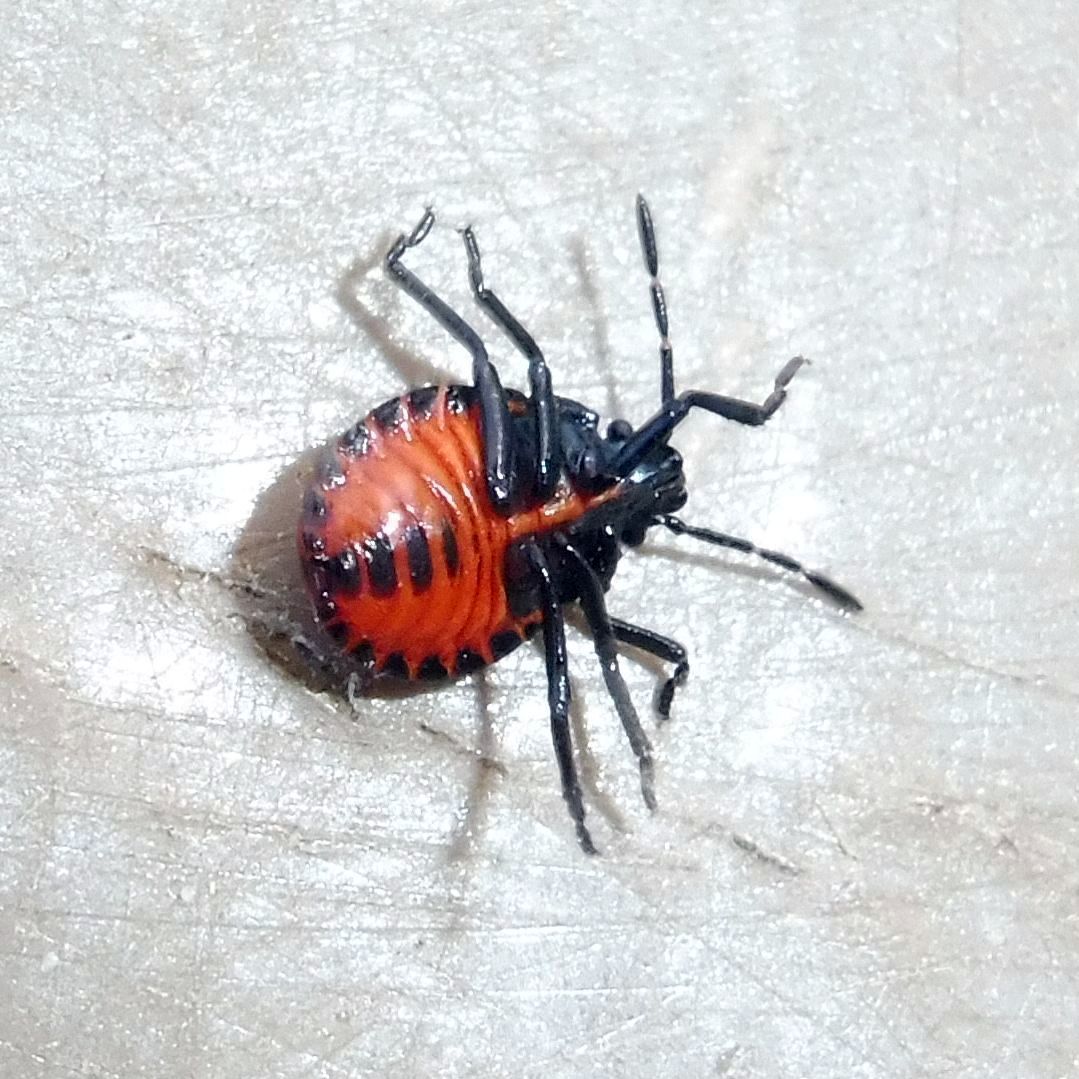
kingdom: Animalia
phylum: Arthropoda
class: Insecta
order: Hemiptera
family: Pentatomidae
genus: Zicrona
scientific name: Zicrona caerulea
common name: Blue shieldbug
